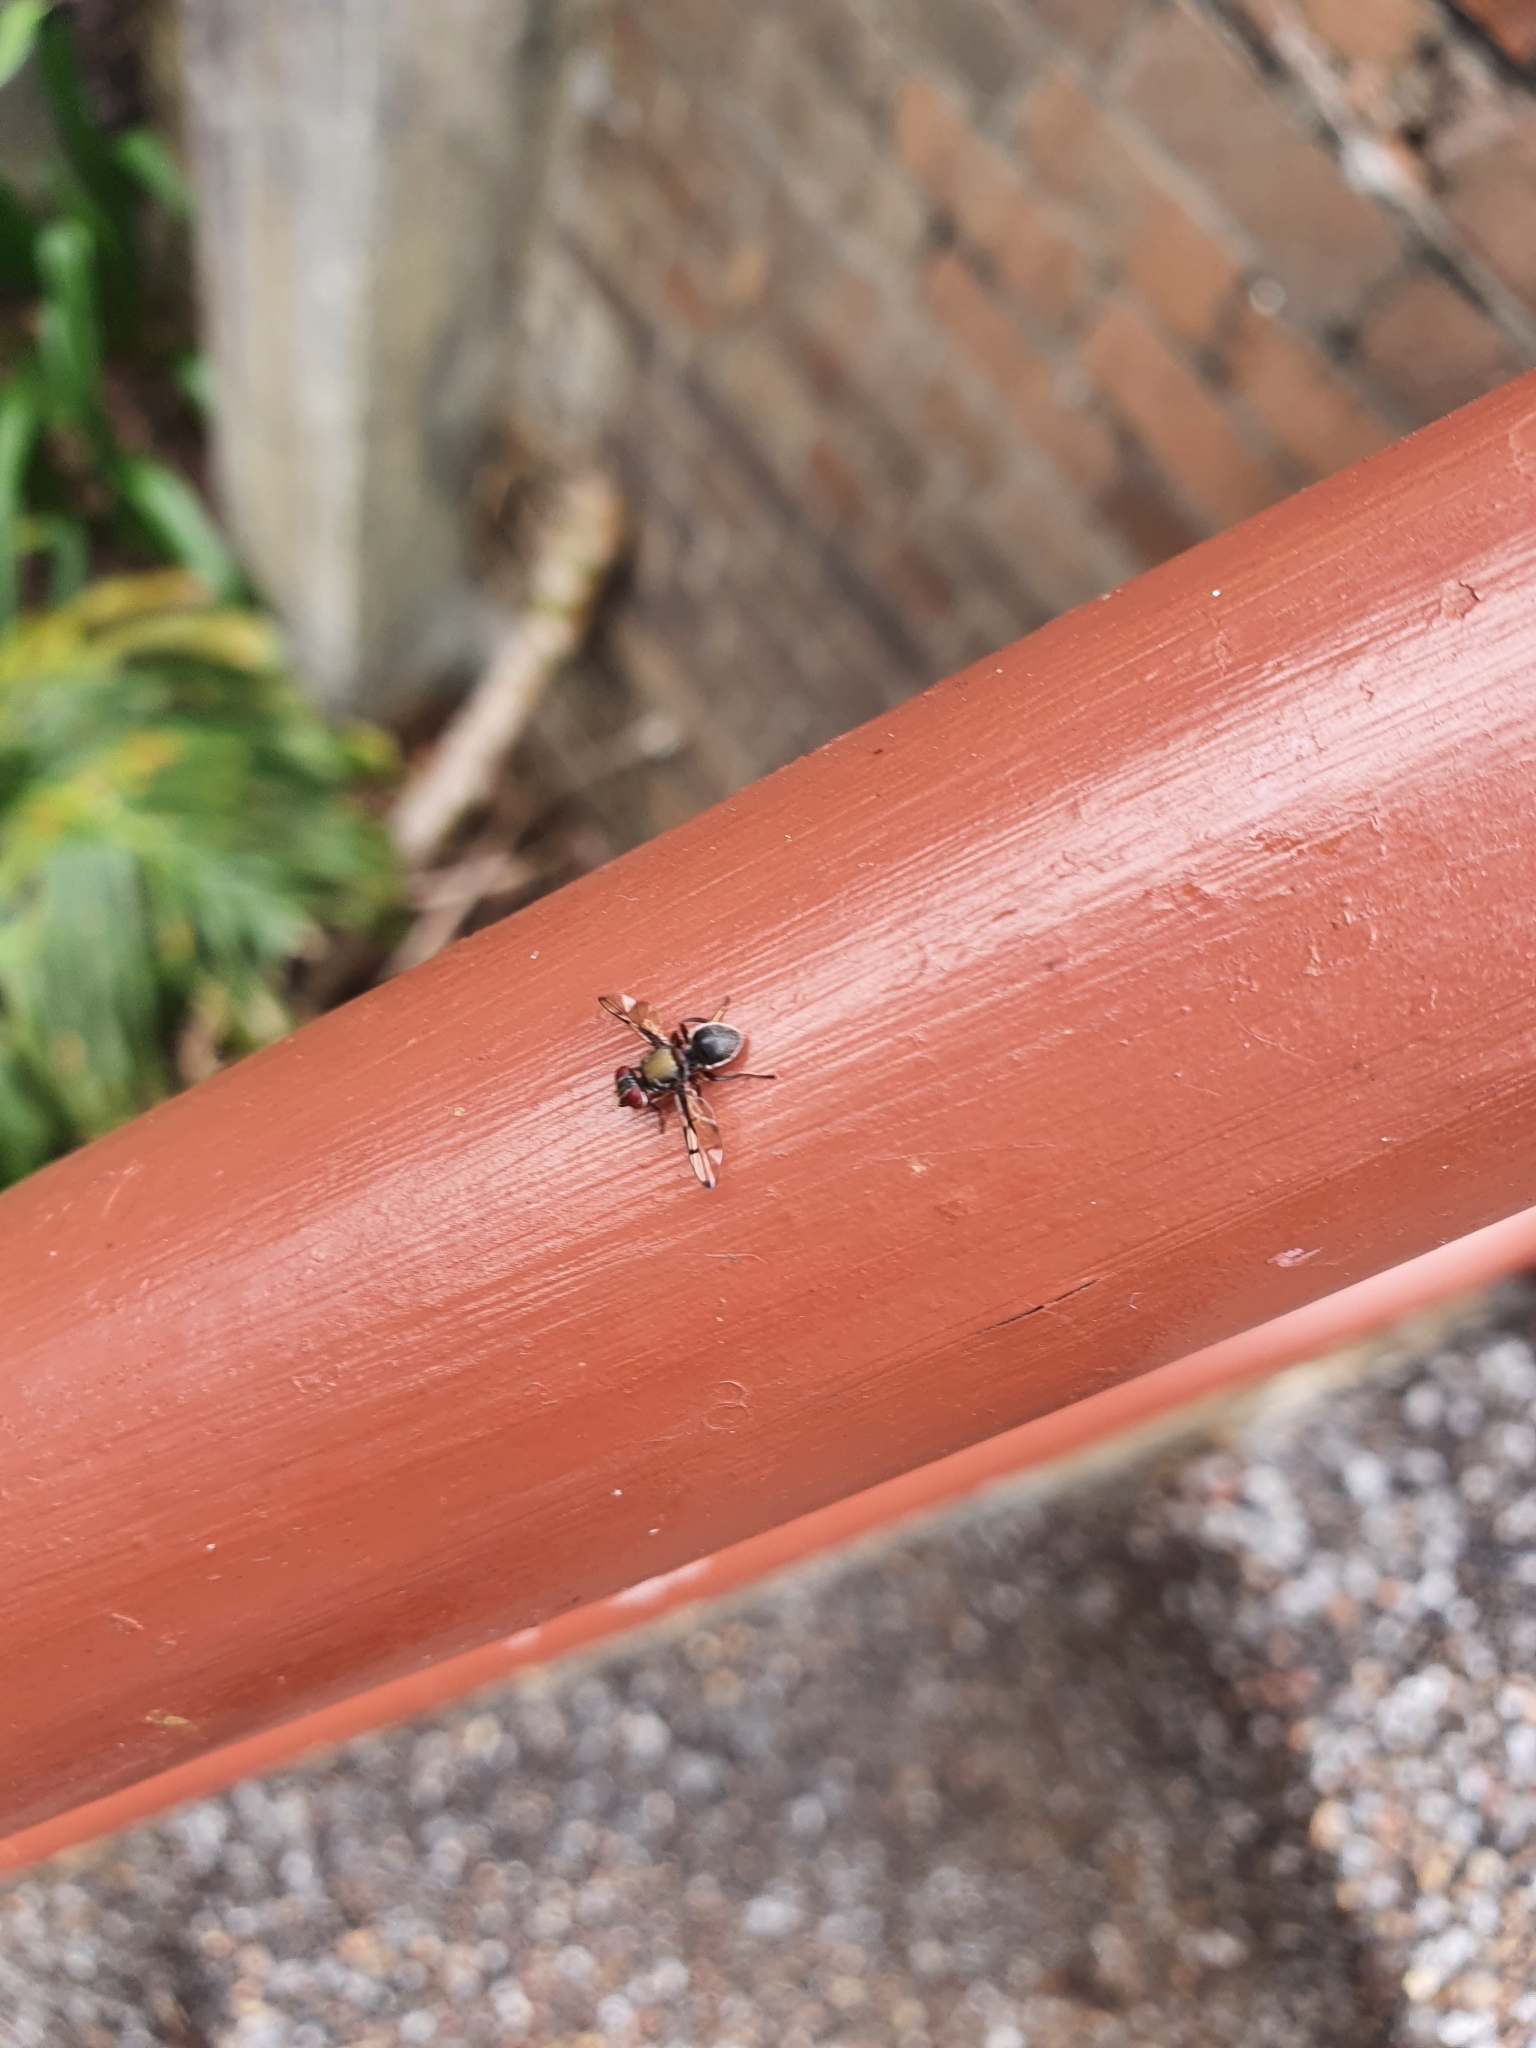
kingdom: Animalia
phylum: Arthropoda
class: Insecta
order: Diptera
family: Platystomatidae
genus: Pogonortalis
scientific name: Pogonortalis doclea
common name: Boatman fly
